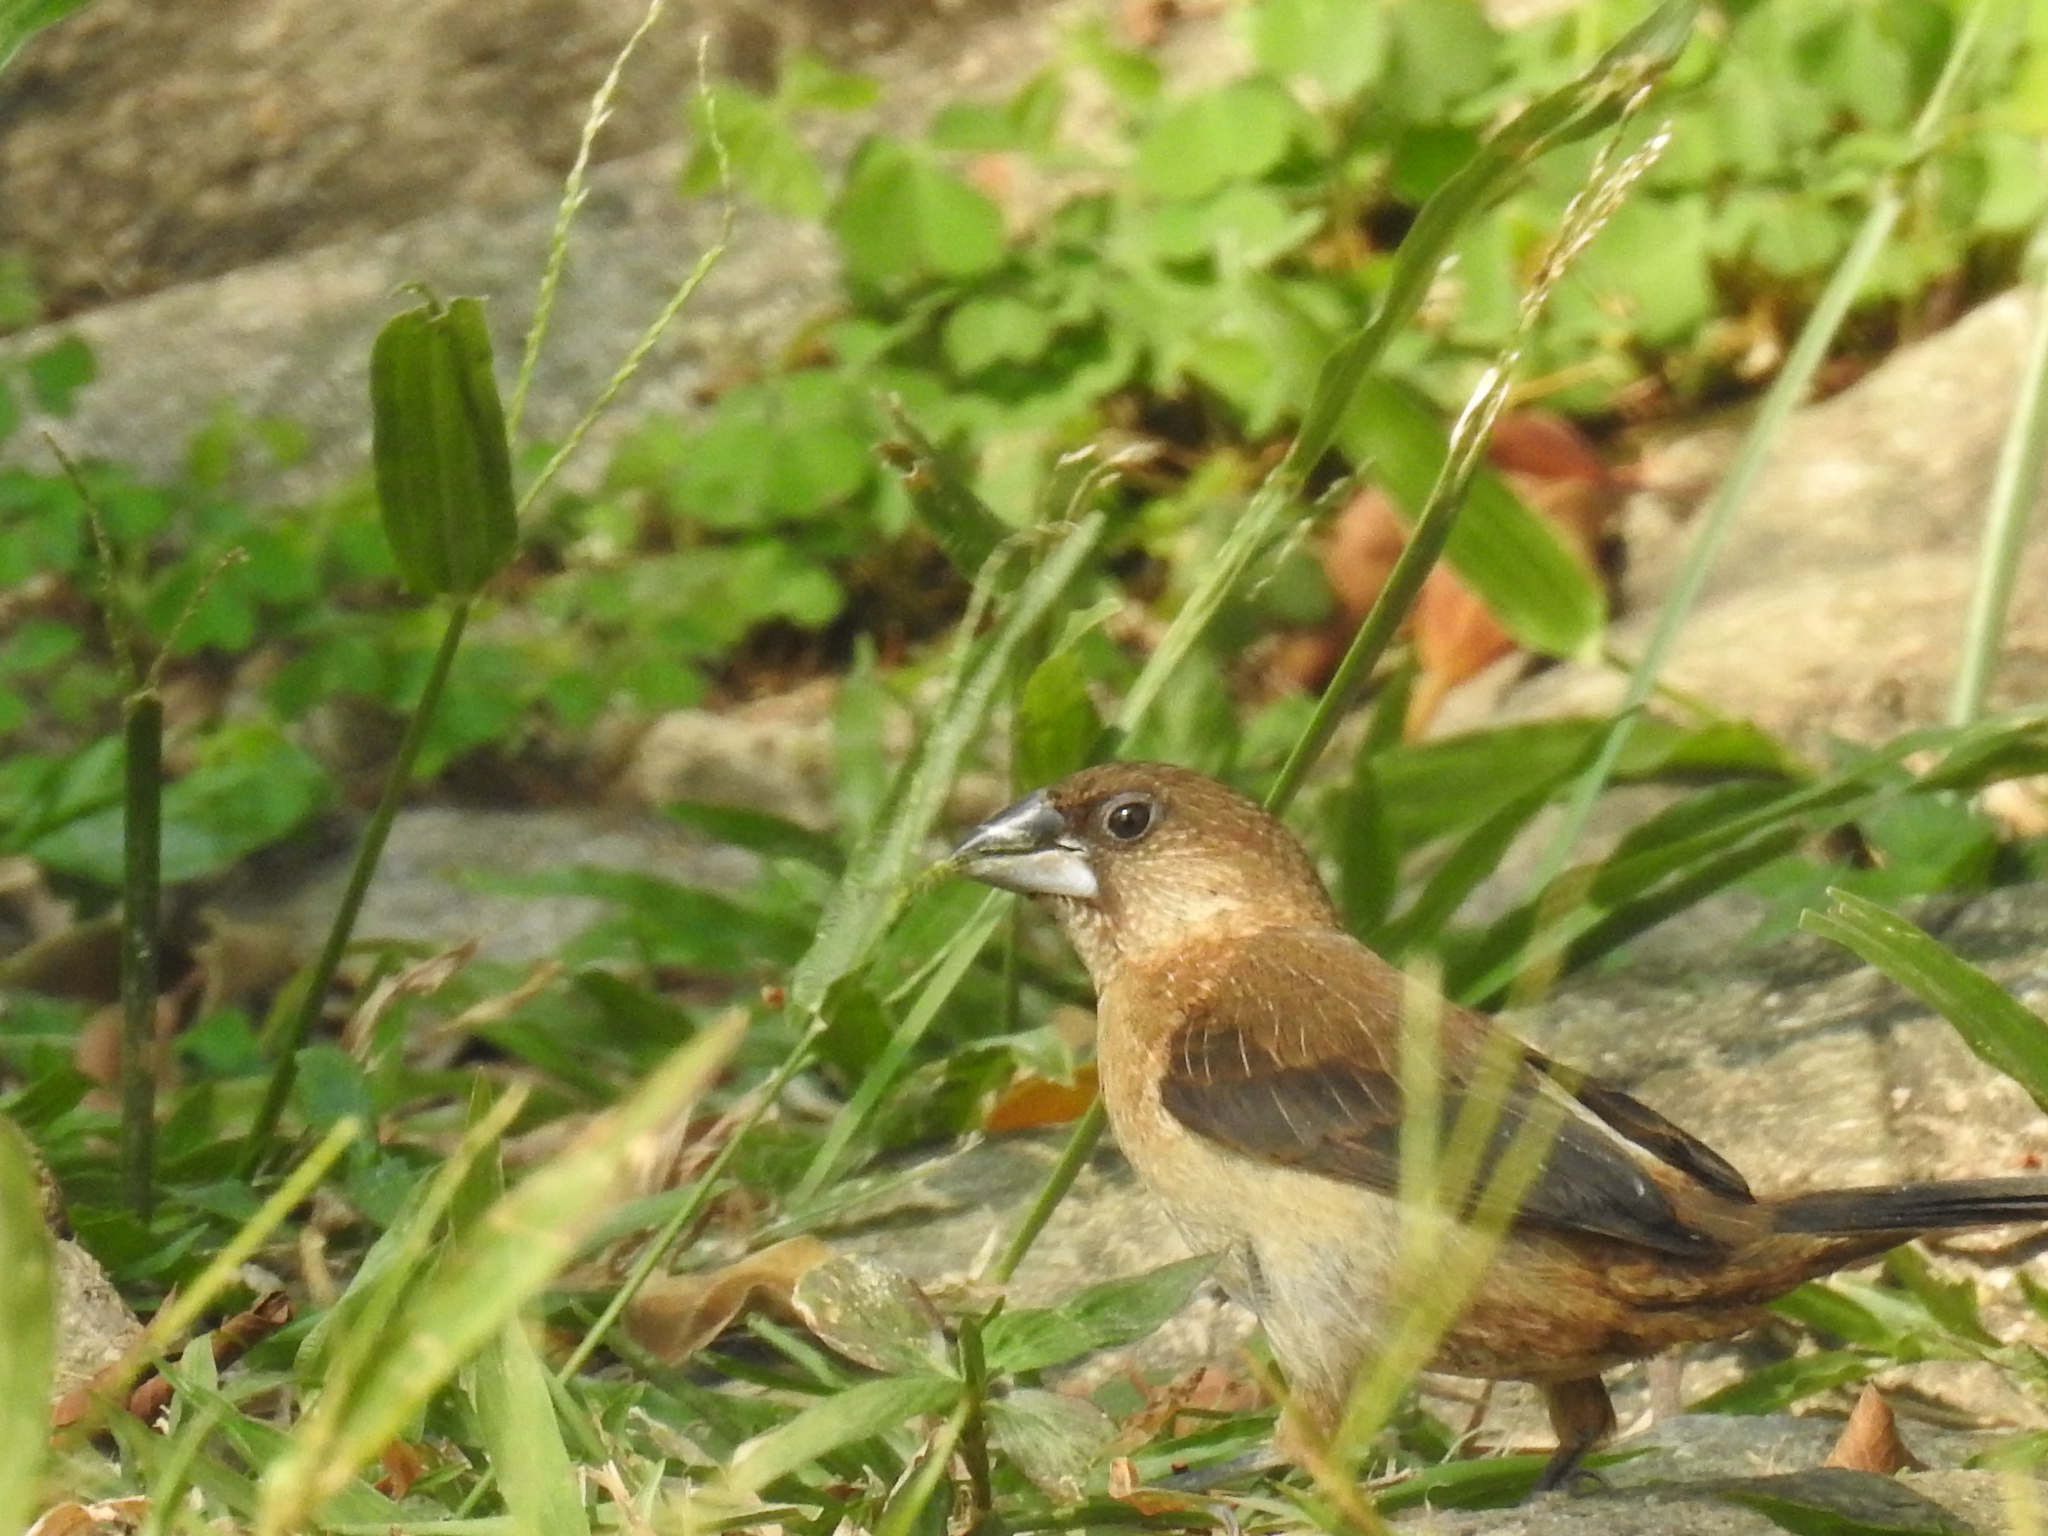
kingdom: Animalia
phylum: Chordata
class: Aves
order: Passeriformes
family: Estrildidae
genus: Lonchura
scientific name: Lonchura striata
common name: White-rumped munia
